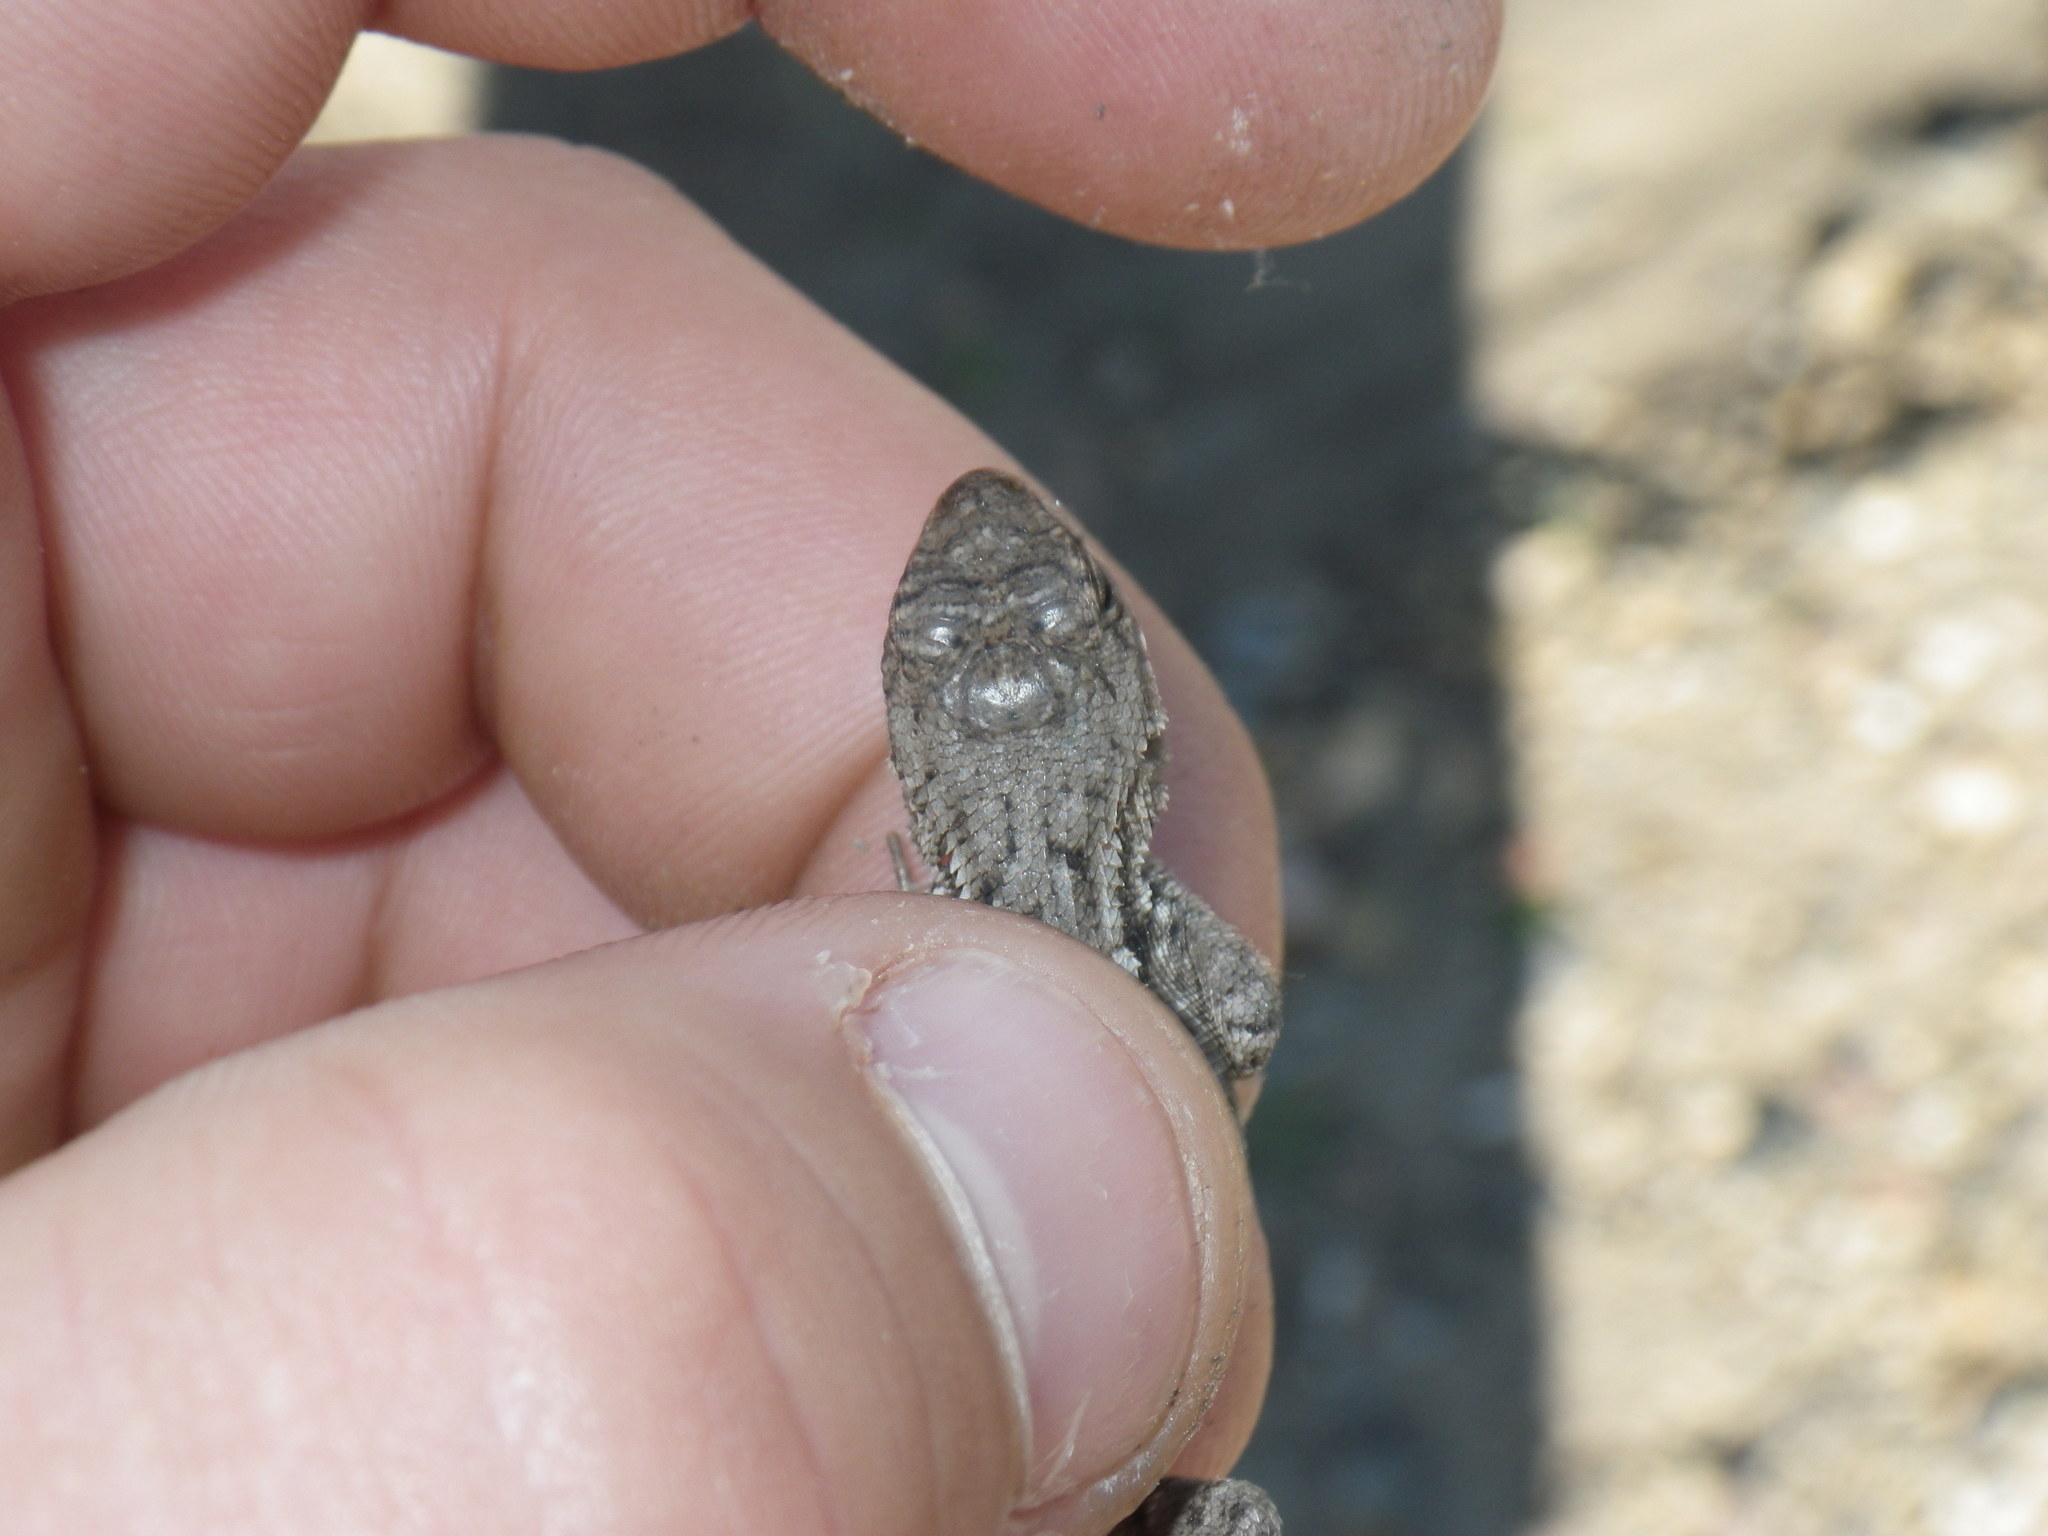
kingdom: Animalia
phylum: Chordata
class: Squamata
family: Phrynosomatidae
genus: Sceloporus
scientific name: Sceloporus occidentalis
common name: Western fence lizard
